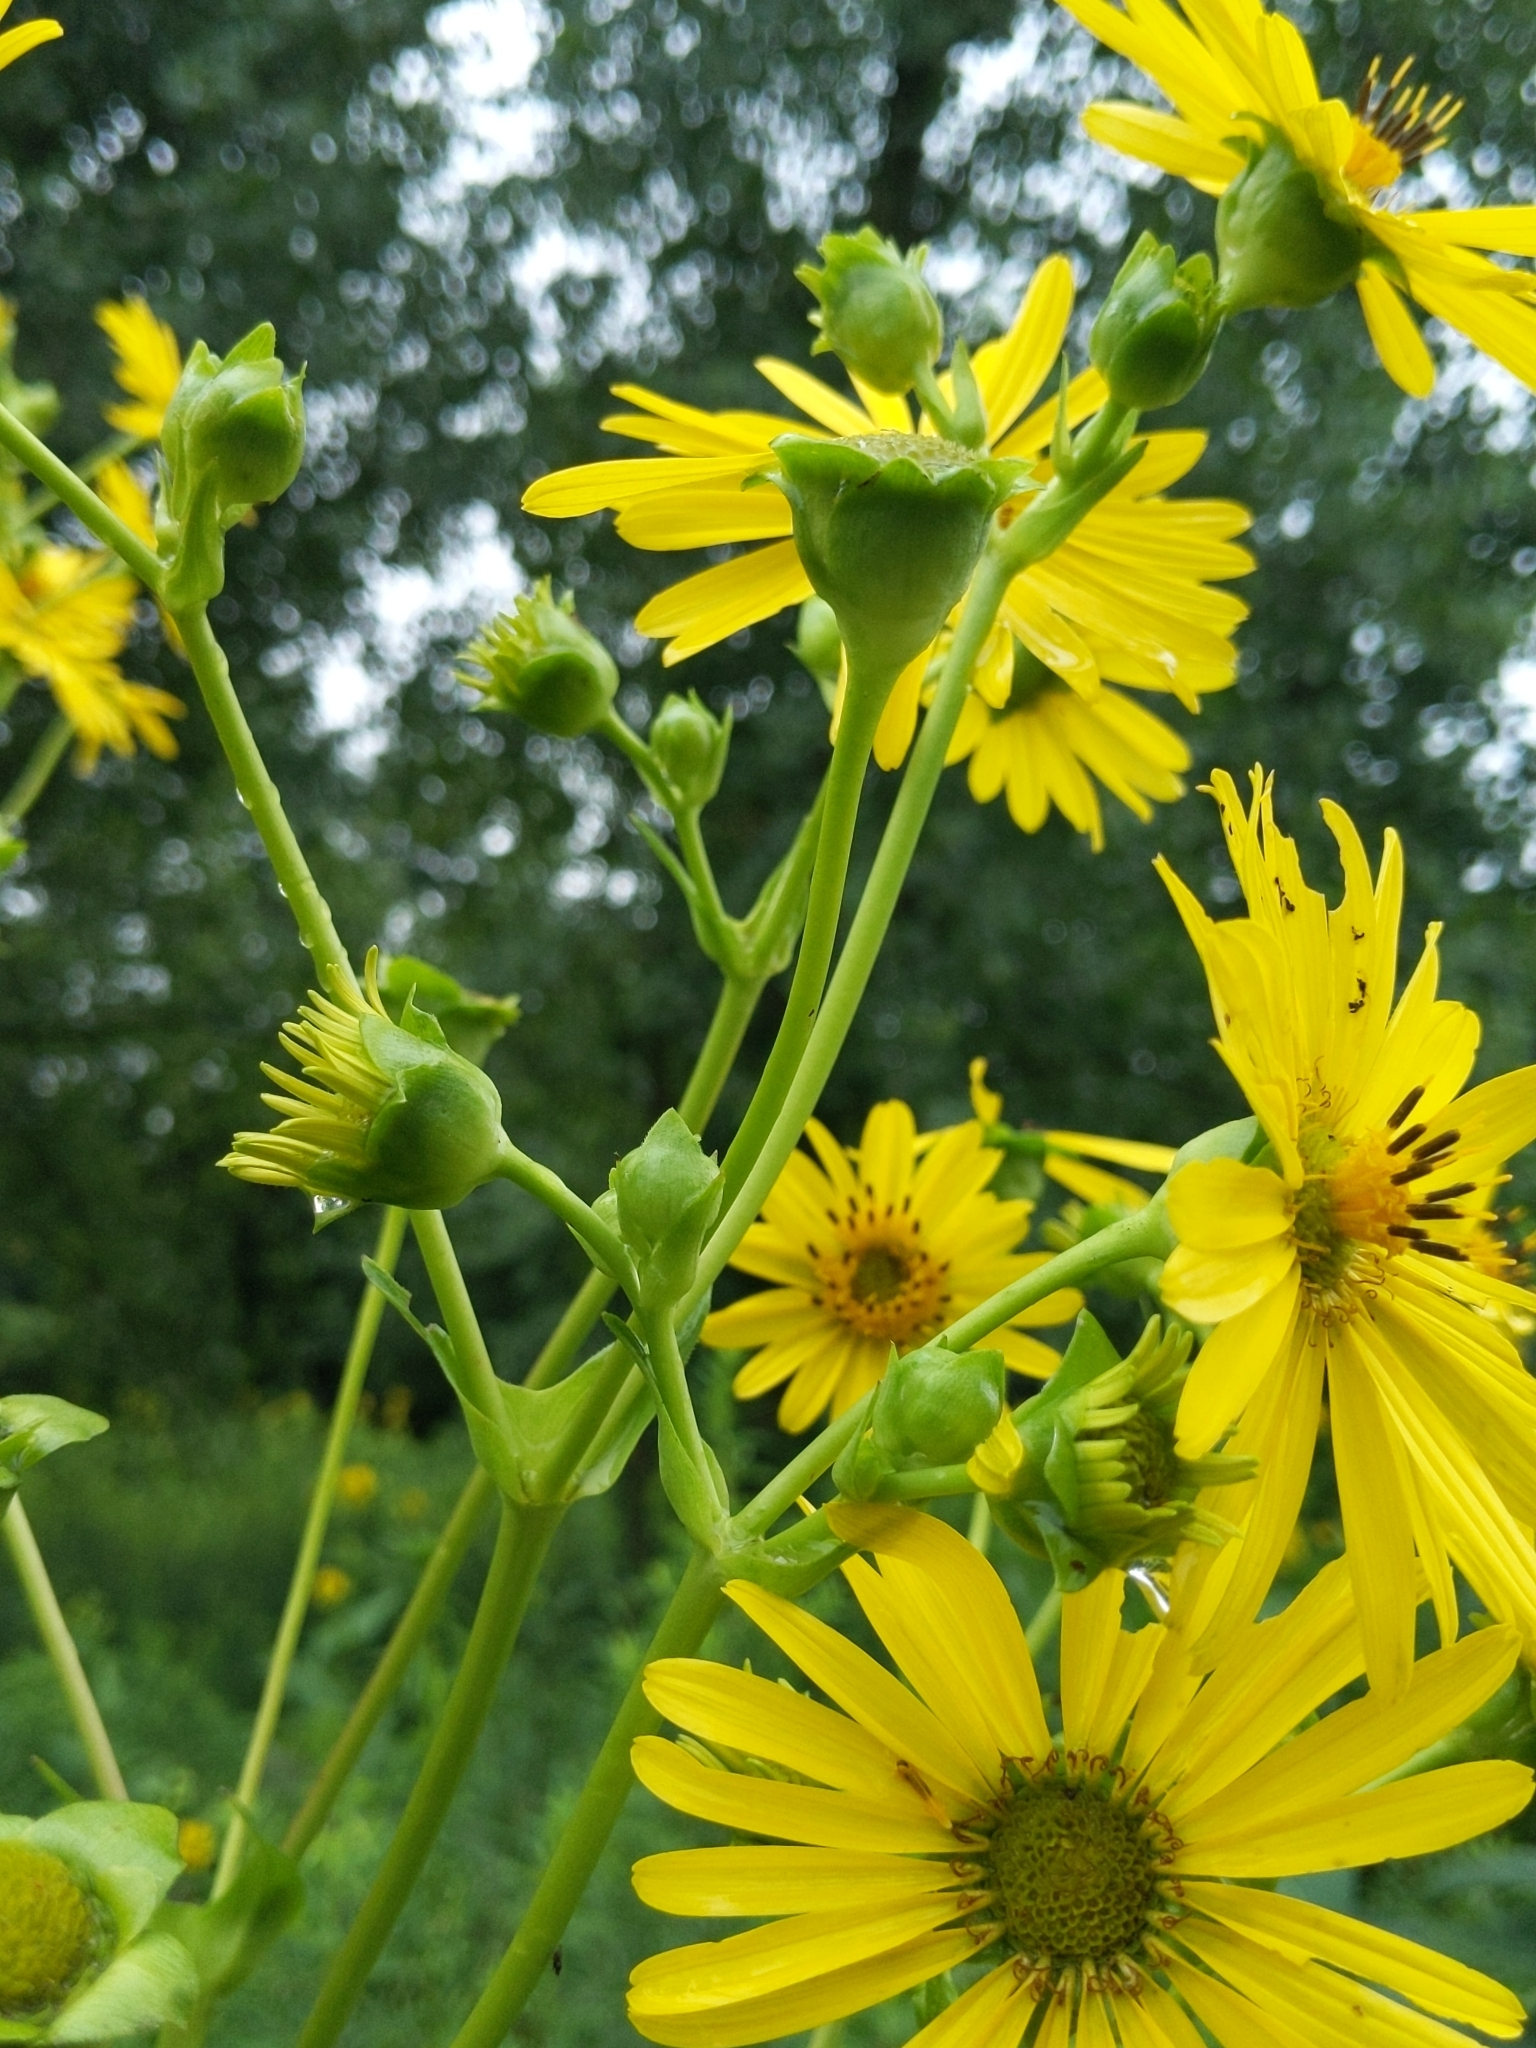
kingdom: Plantae
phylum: Tracheophyta
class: Magnoliopsida
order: Asterales
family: Asteraceae
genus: Silphium
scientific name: Silphium perfoliatum
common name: Cup-plant
